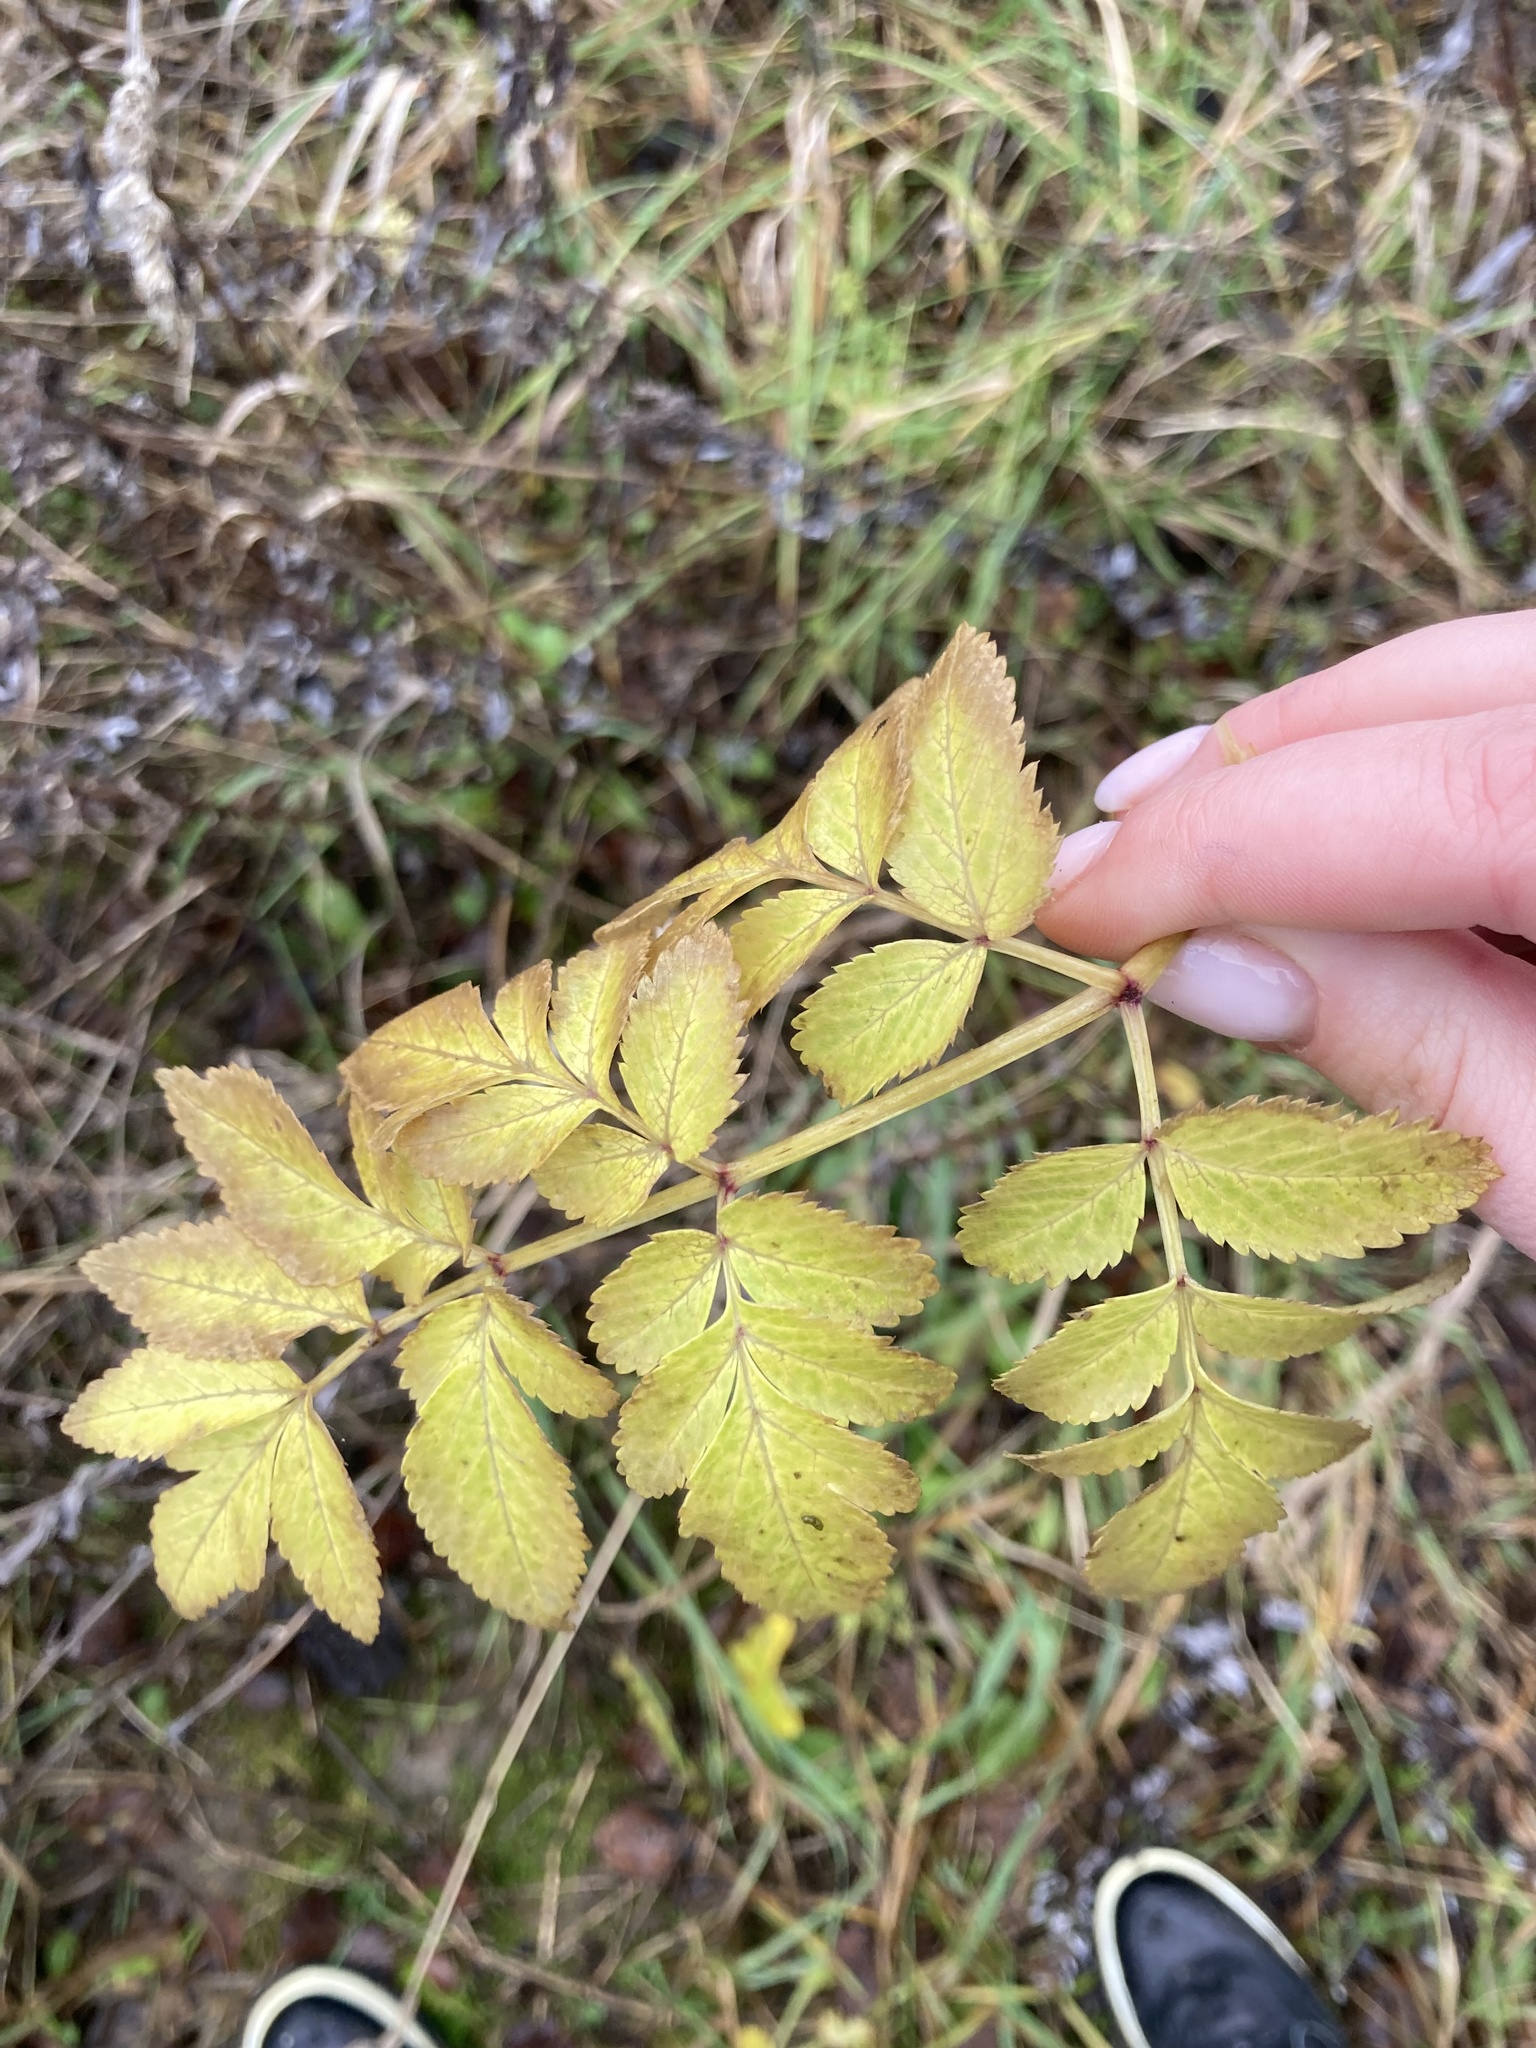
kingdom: Plantae
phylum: Tracheophyta
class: Magnoliopsida
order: Apiales
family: Apiaceae
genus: Angelica
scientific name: Angelica sylvestris
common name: Wild angelica
